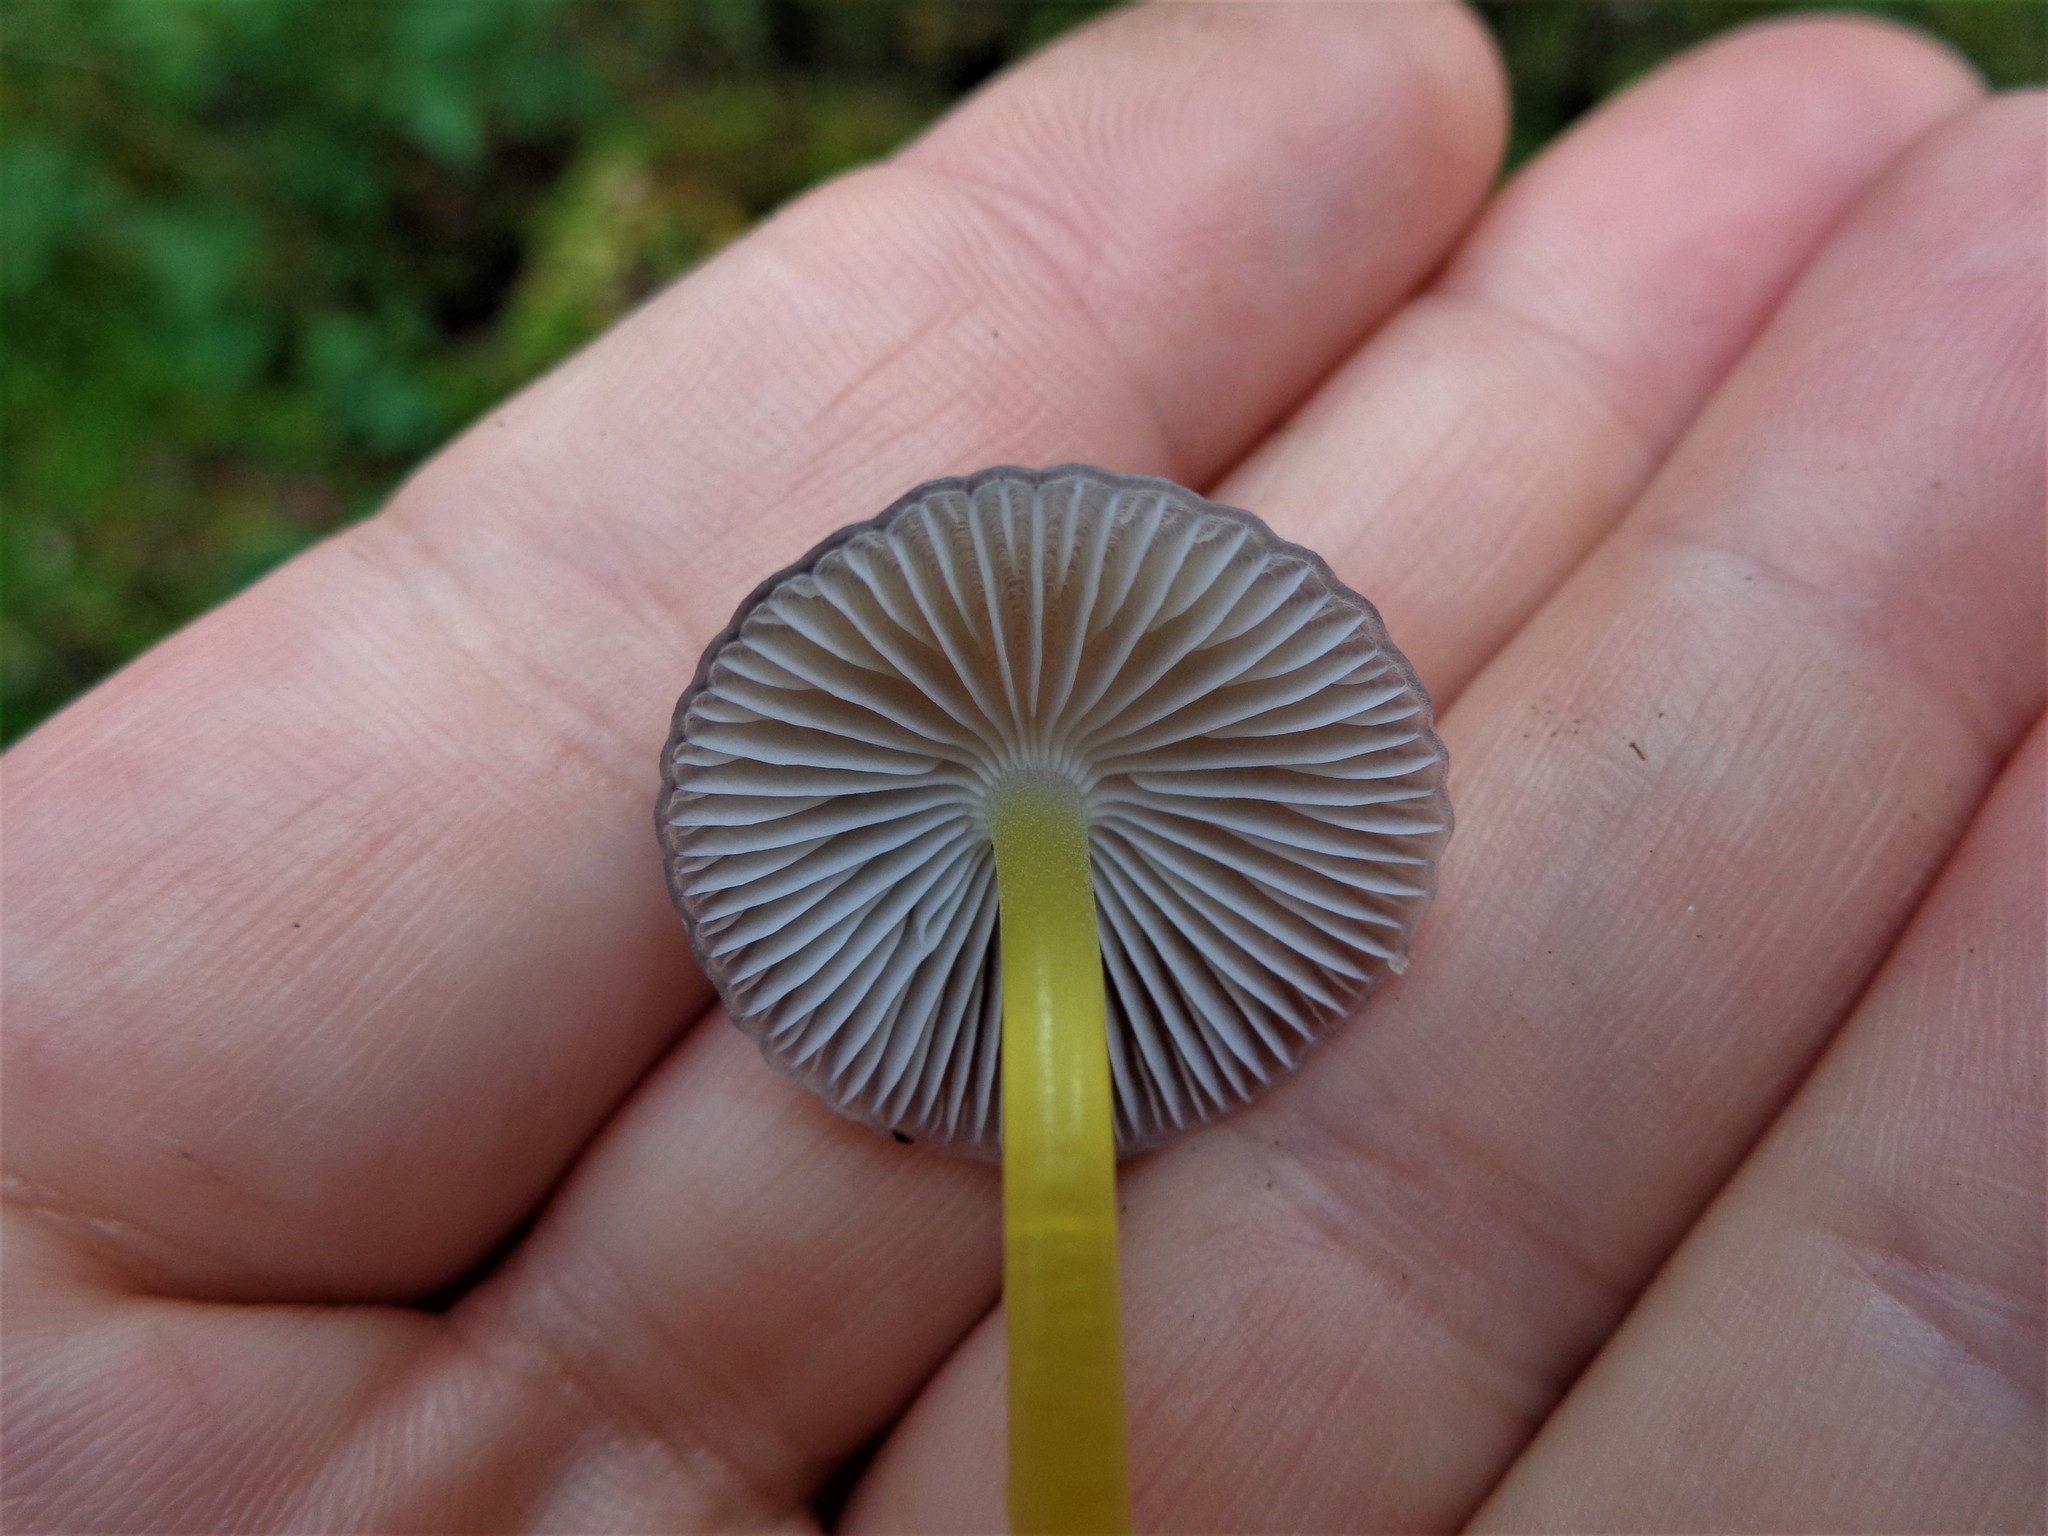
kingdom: Fungi
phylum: Basidiomycota
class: Agaricomycetes
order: Agaricales
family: Mycenaceae
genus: Mycena
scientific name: Mycena epipterygia
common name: Yellowleg bonnet
